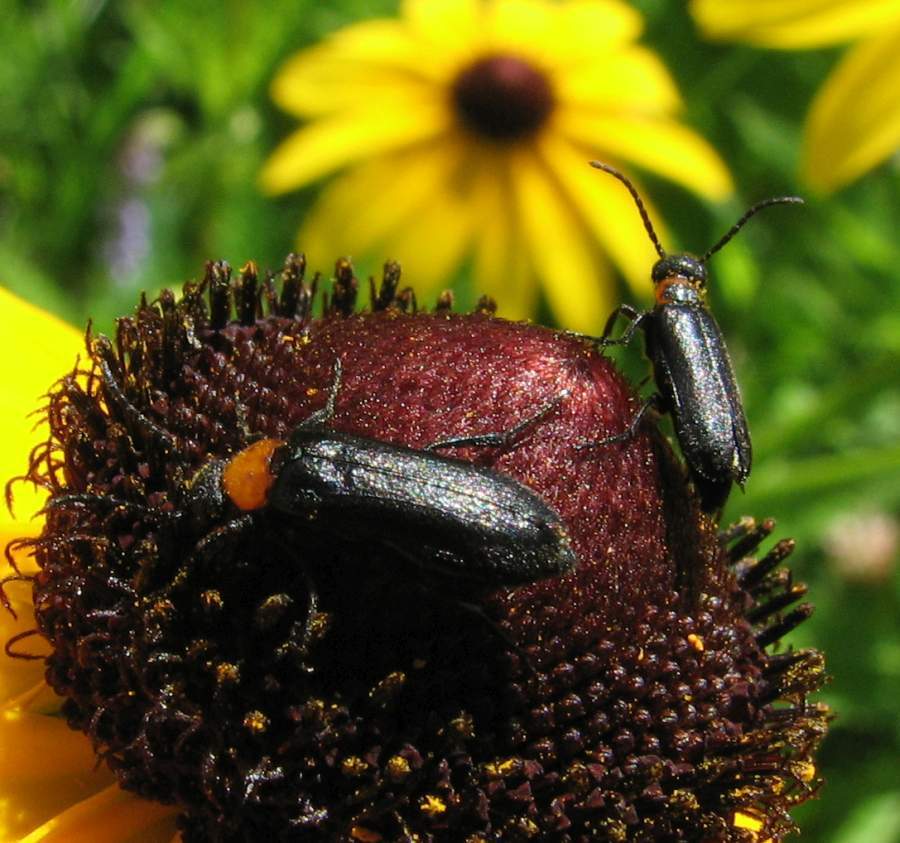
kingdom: Animalia
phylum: Arthropoda
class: Insecta
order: Coleoptera
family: Meloidae
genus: Nemognatha
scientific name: Nemognatha nemorensis
